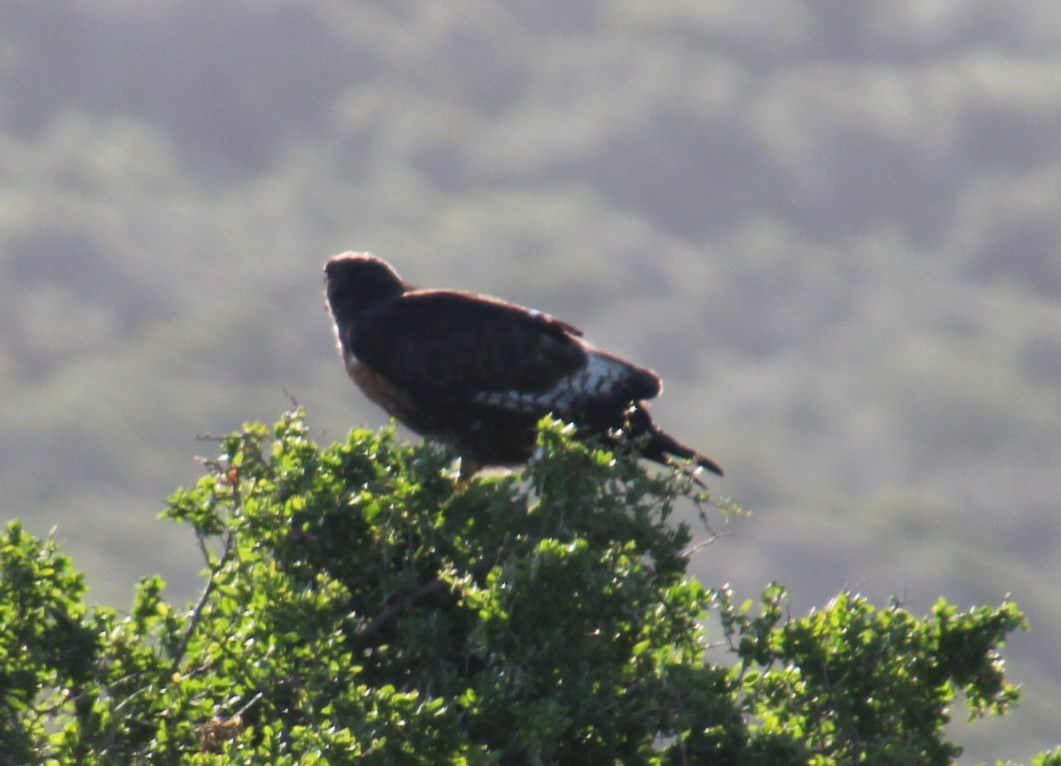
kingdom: Animalia
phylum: Chordata
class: Aves
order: Accipitriformes
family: Accipitridae
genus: Buteo
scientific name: Buteo rufofuscus
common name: Jackal buzzard
